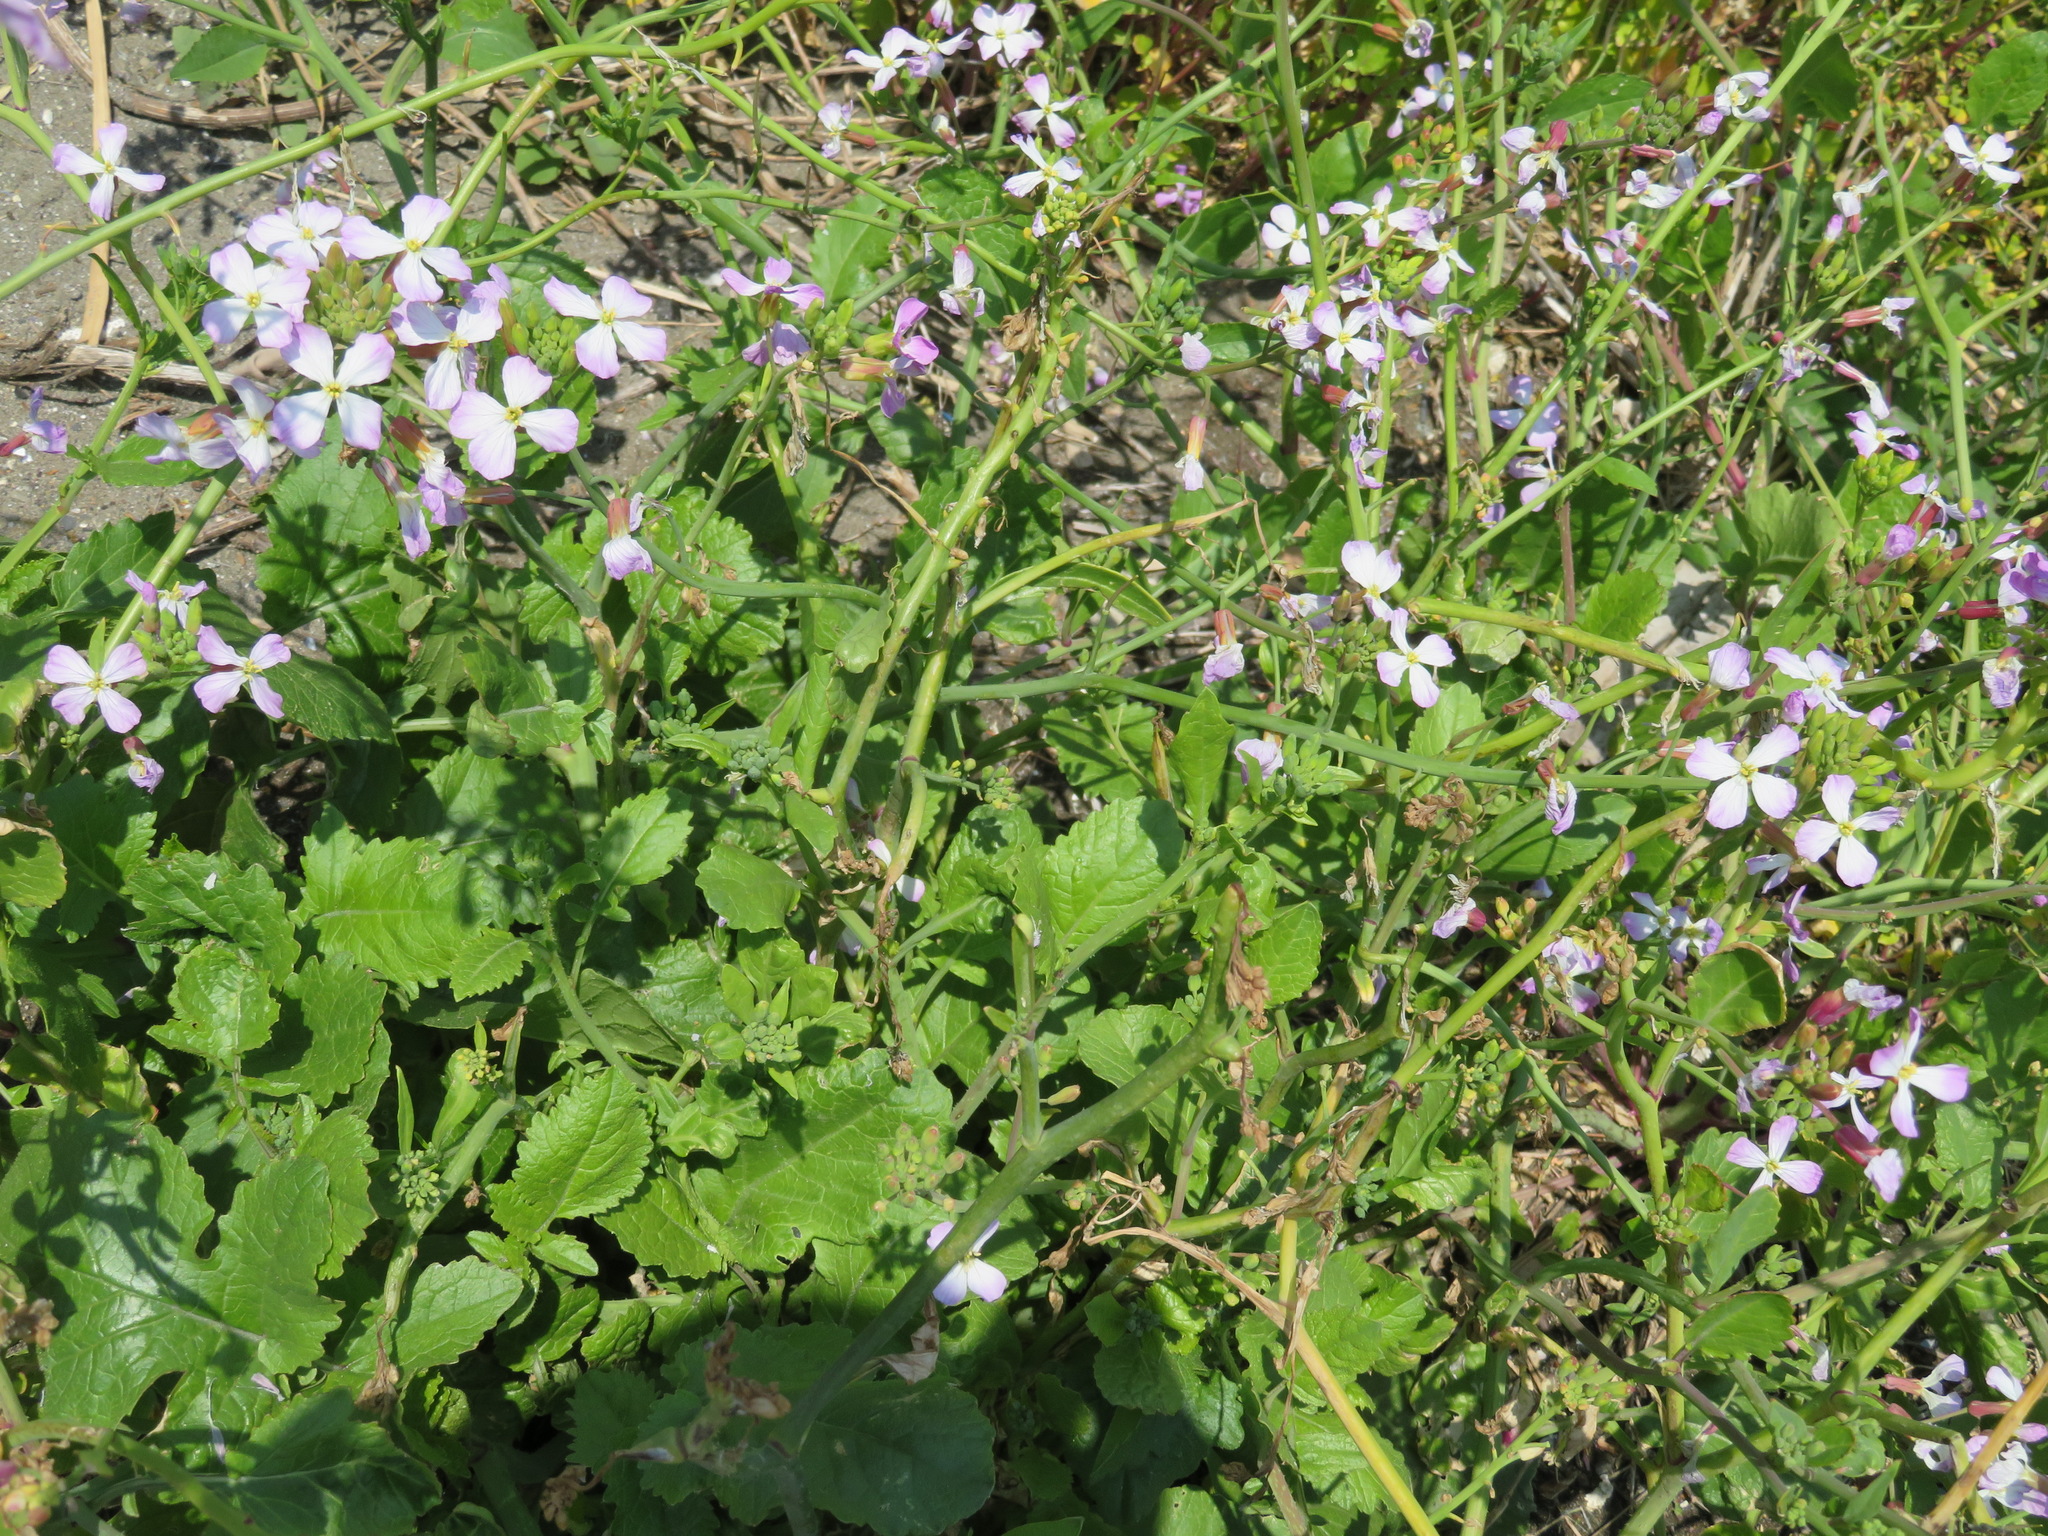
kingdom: Plantae
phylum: Tracheophyta
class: Magnoliopsida
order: Brassicales
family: Brassicaceae
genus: Raphanus
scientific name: Raphanus sativus
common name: Cultivated radish
